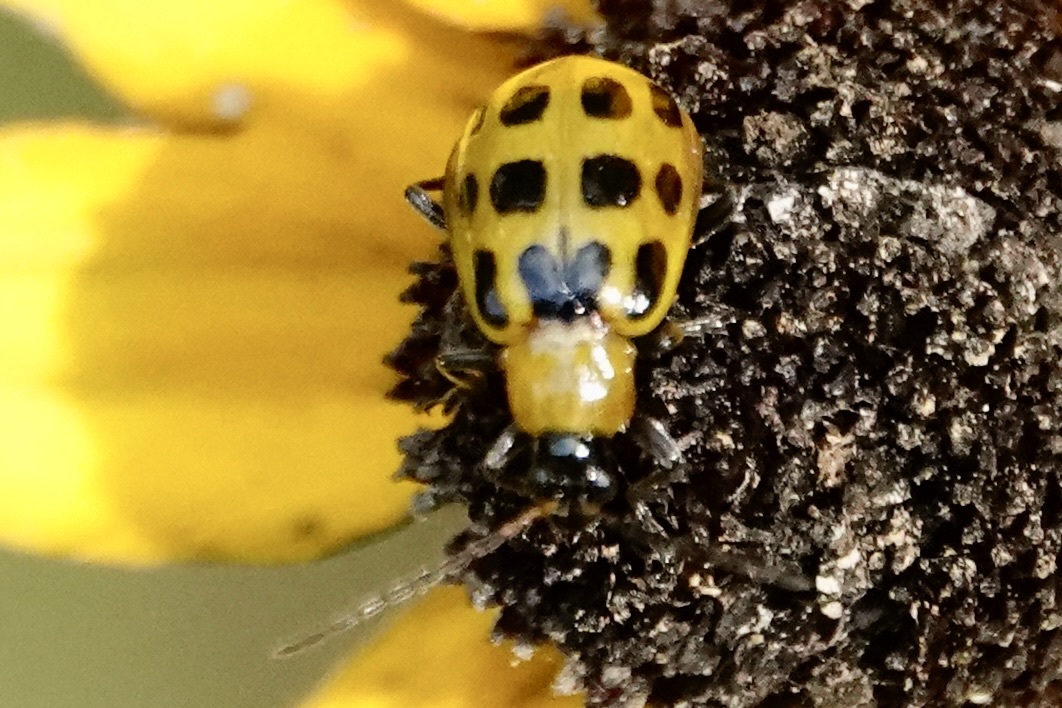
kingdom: Animalia
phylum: Arthropoda
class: Insecta
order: Coleoptera
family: Chrysomelidae
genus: Diabrotica
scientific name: Diabrotica undecimpunctata
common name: Spotted cucumber beetle
